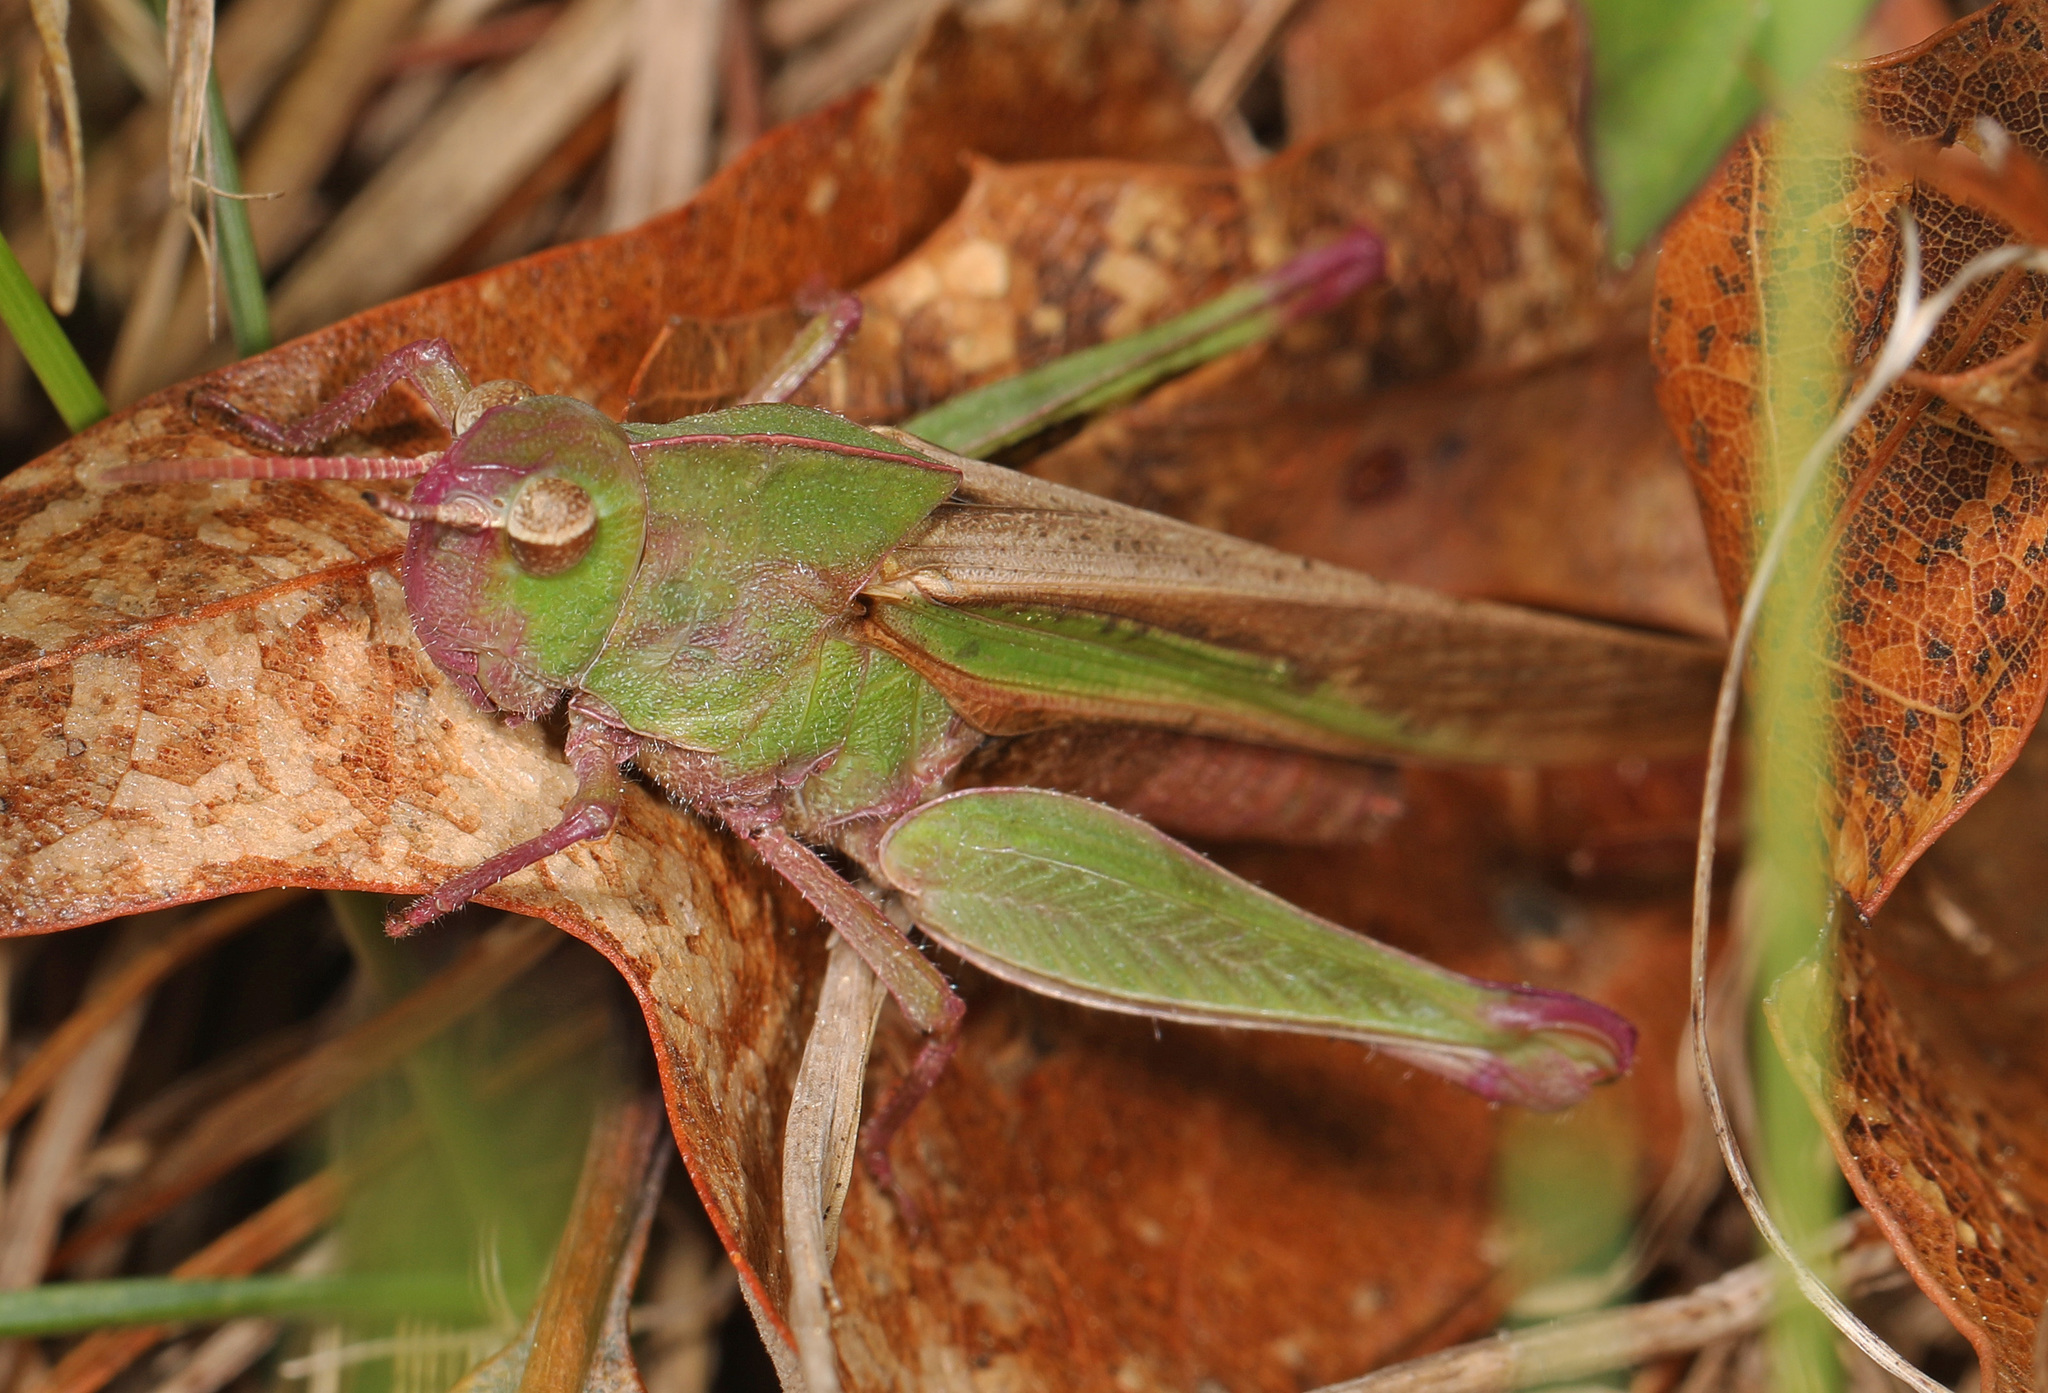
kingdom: Animalia
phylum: Arthropoda
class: Insecta
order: Orthoptera
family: Acrididae
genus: Chortophaga
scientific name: Chortophaga viridifasciata
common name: Green-striped grasshopper
